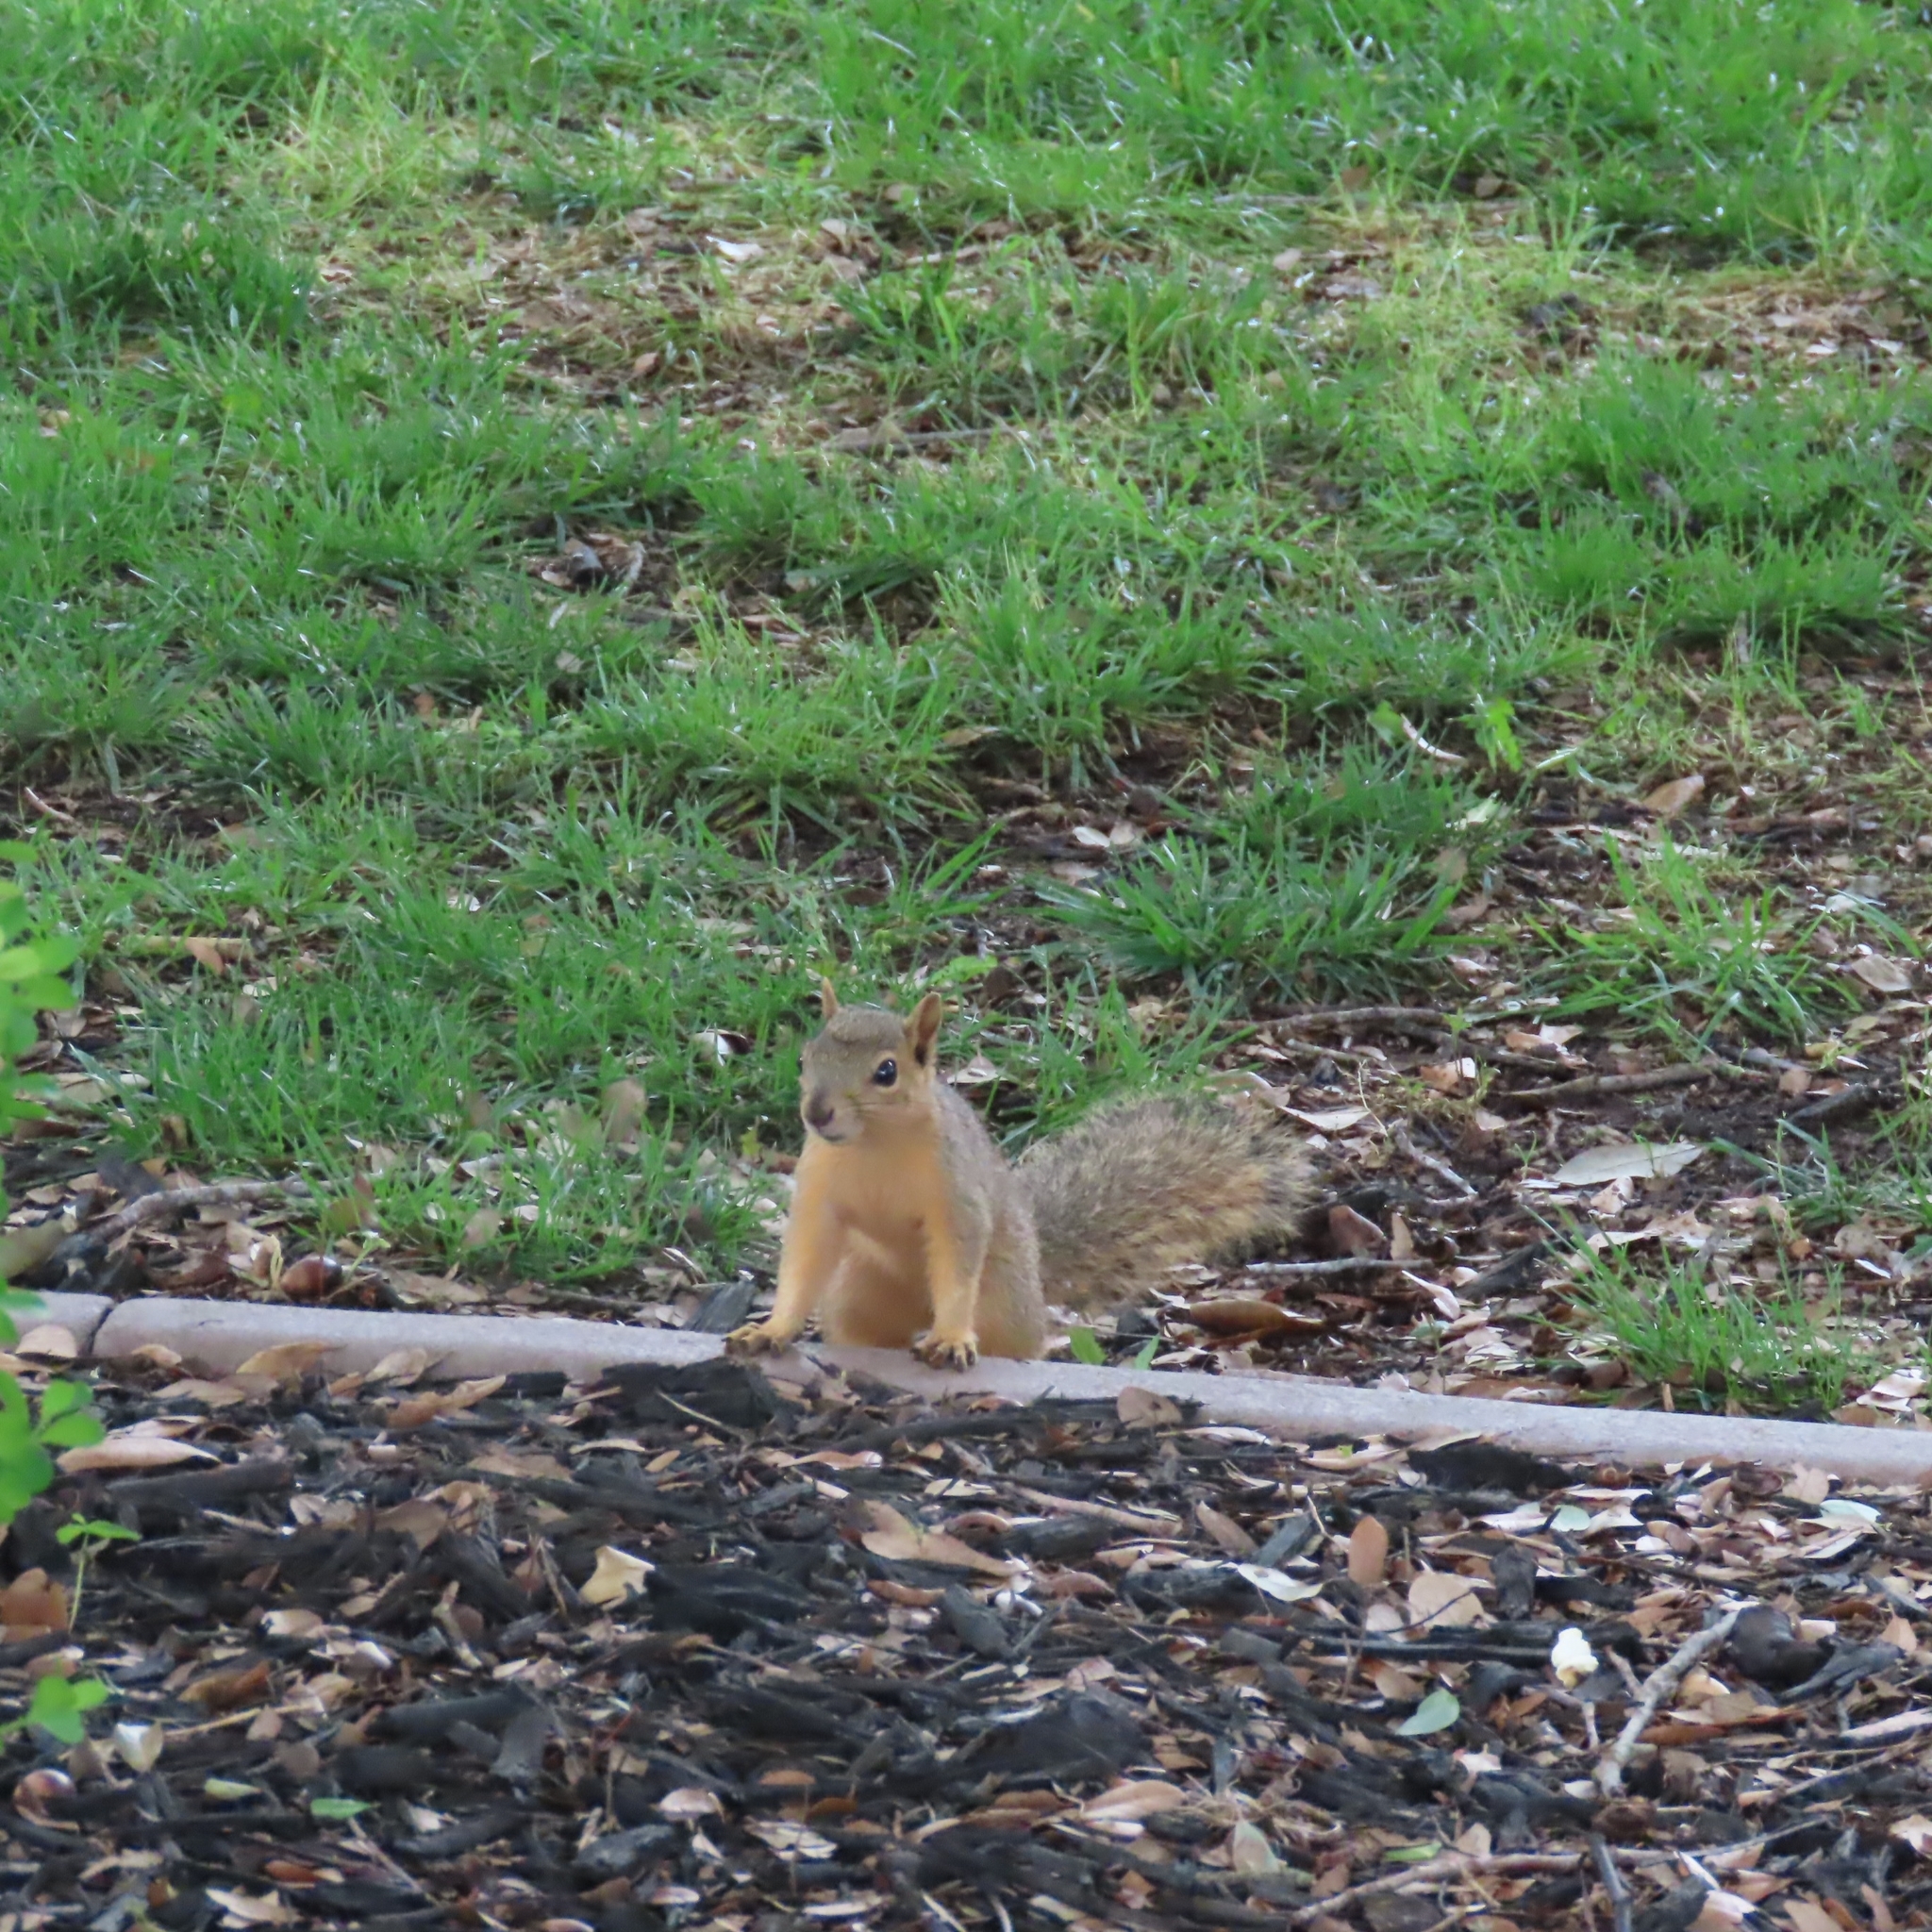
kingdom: Animalia
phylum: Chordata
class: Mammalia
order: Rodentia
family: Sciuridae
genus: Sciurus
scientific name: Sciurus niger
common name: Fox squirrel
